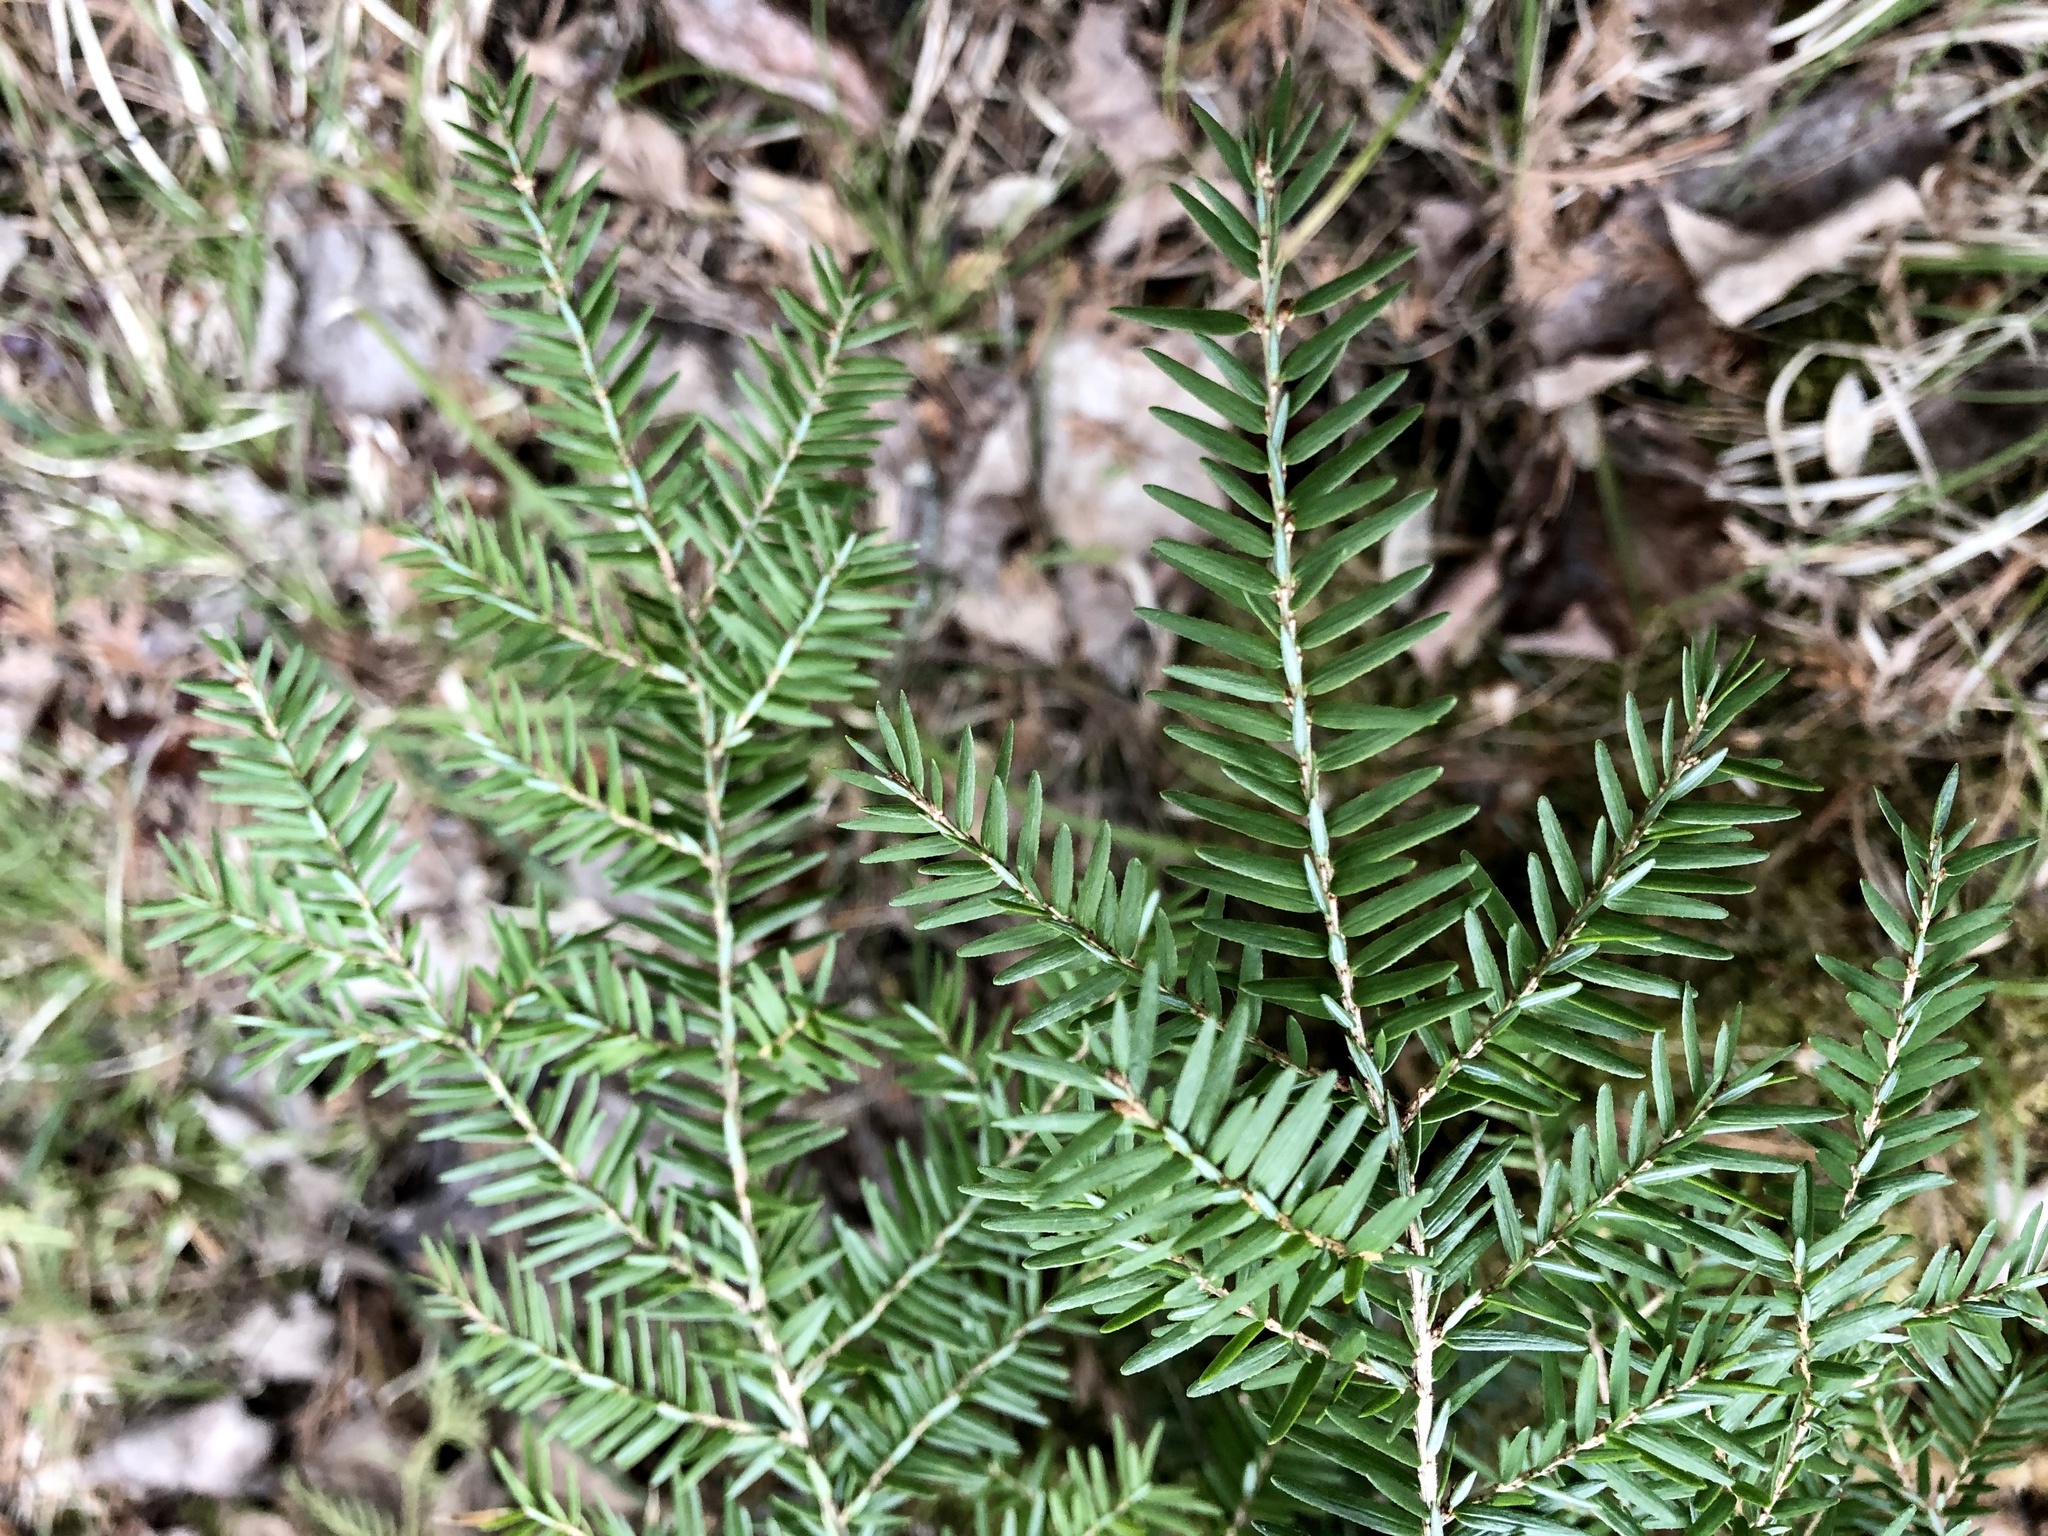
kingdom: Plantae
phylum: Tracheophyta
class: Pinopsida
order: Pinales
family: Pinaceae
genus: Tsuga
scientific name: Tsuga canadensis
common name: Eastern hemlock
